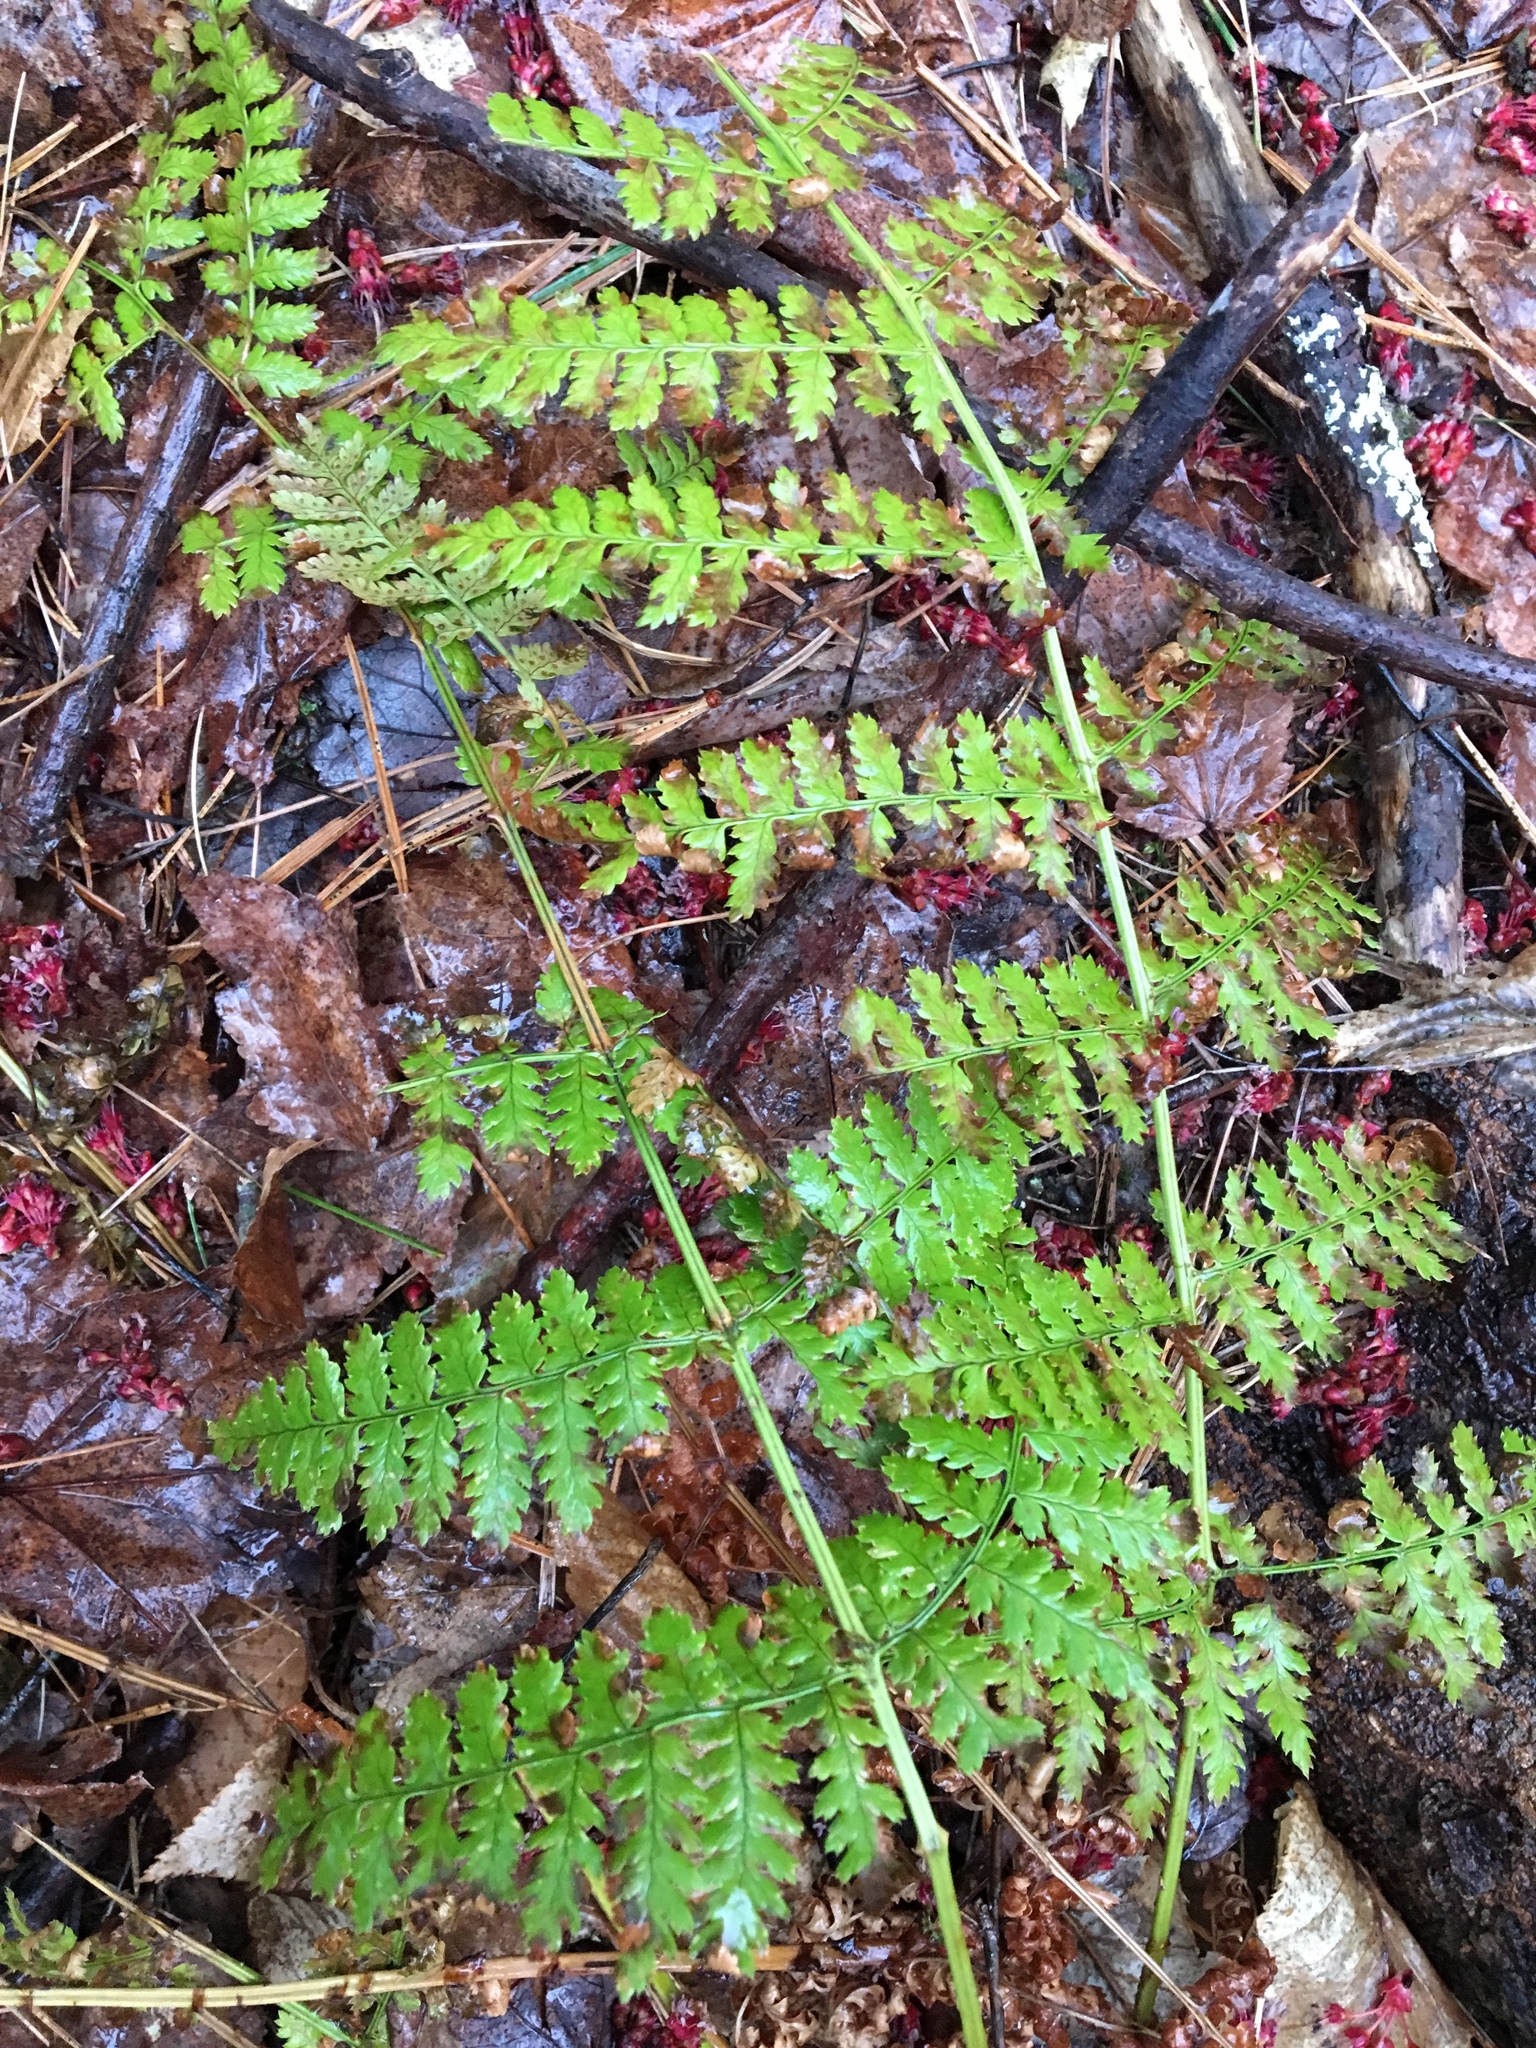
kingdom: Plantae
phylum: Tracheophyta
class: Polypodiopsida
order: Polypodiales
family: Dryopteridaceae
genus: Dryopteris
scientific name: Dryopteris intermedia
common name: Evergreen wood fern
